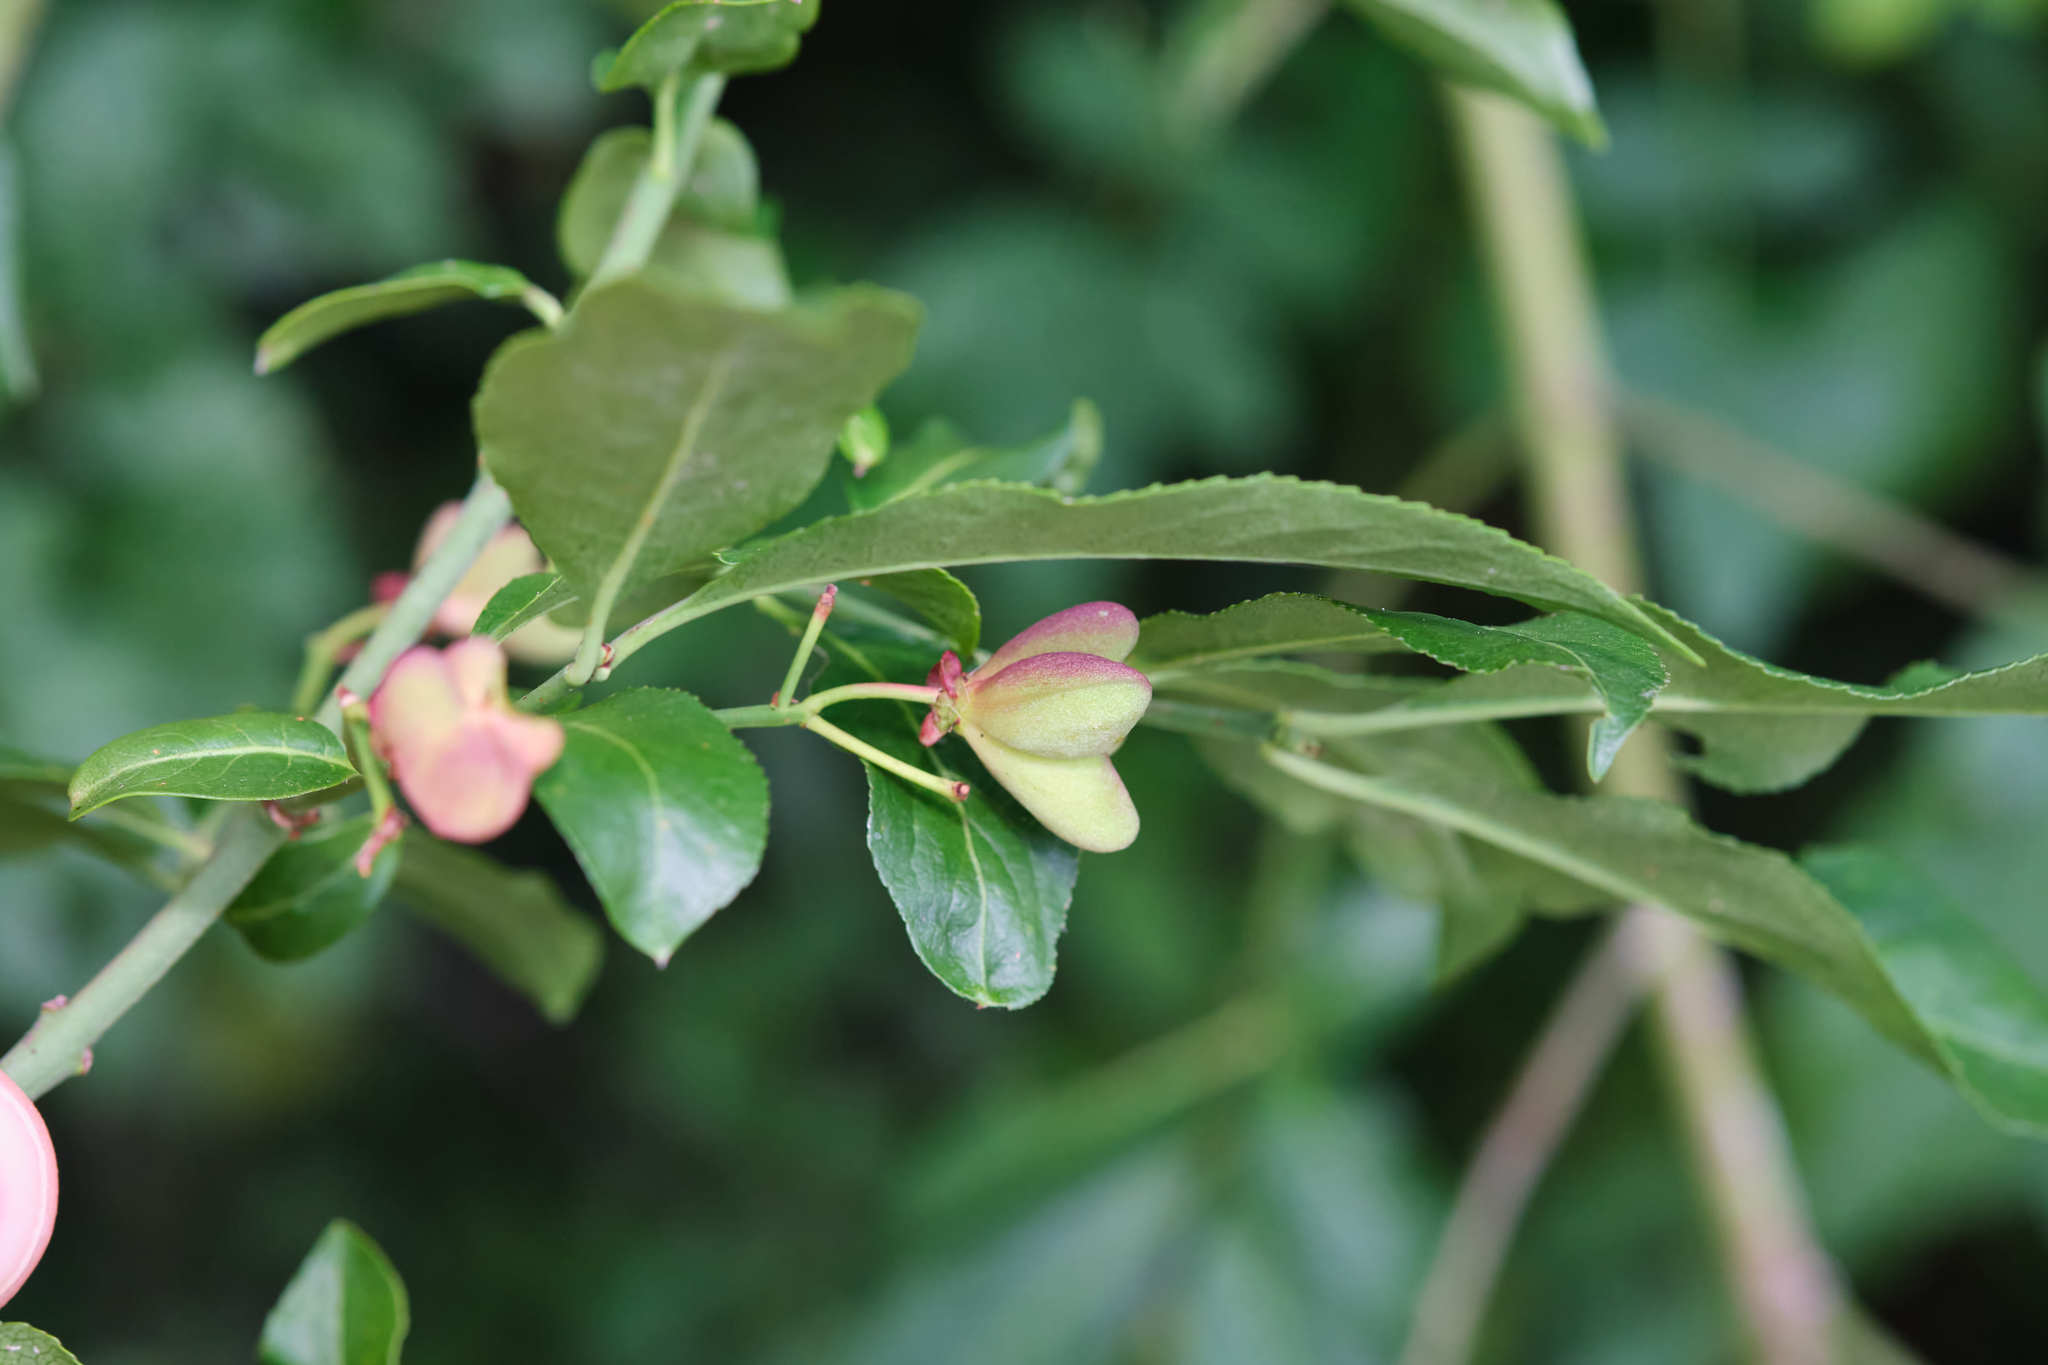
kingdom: Plantae
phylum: Tracheophyta
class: Magnoliopsida
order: Celastrales
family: Celastraceae
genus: Euonymus
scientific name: Euonymus europaeus
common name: Spindle
